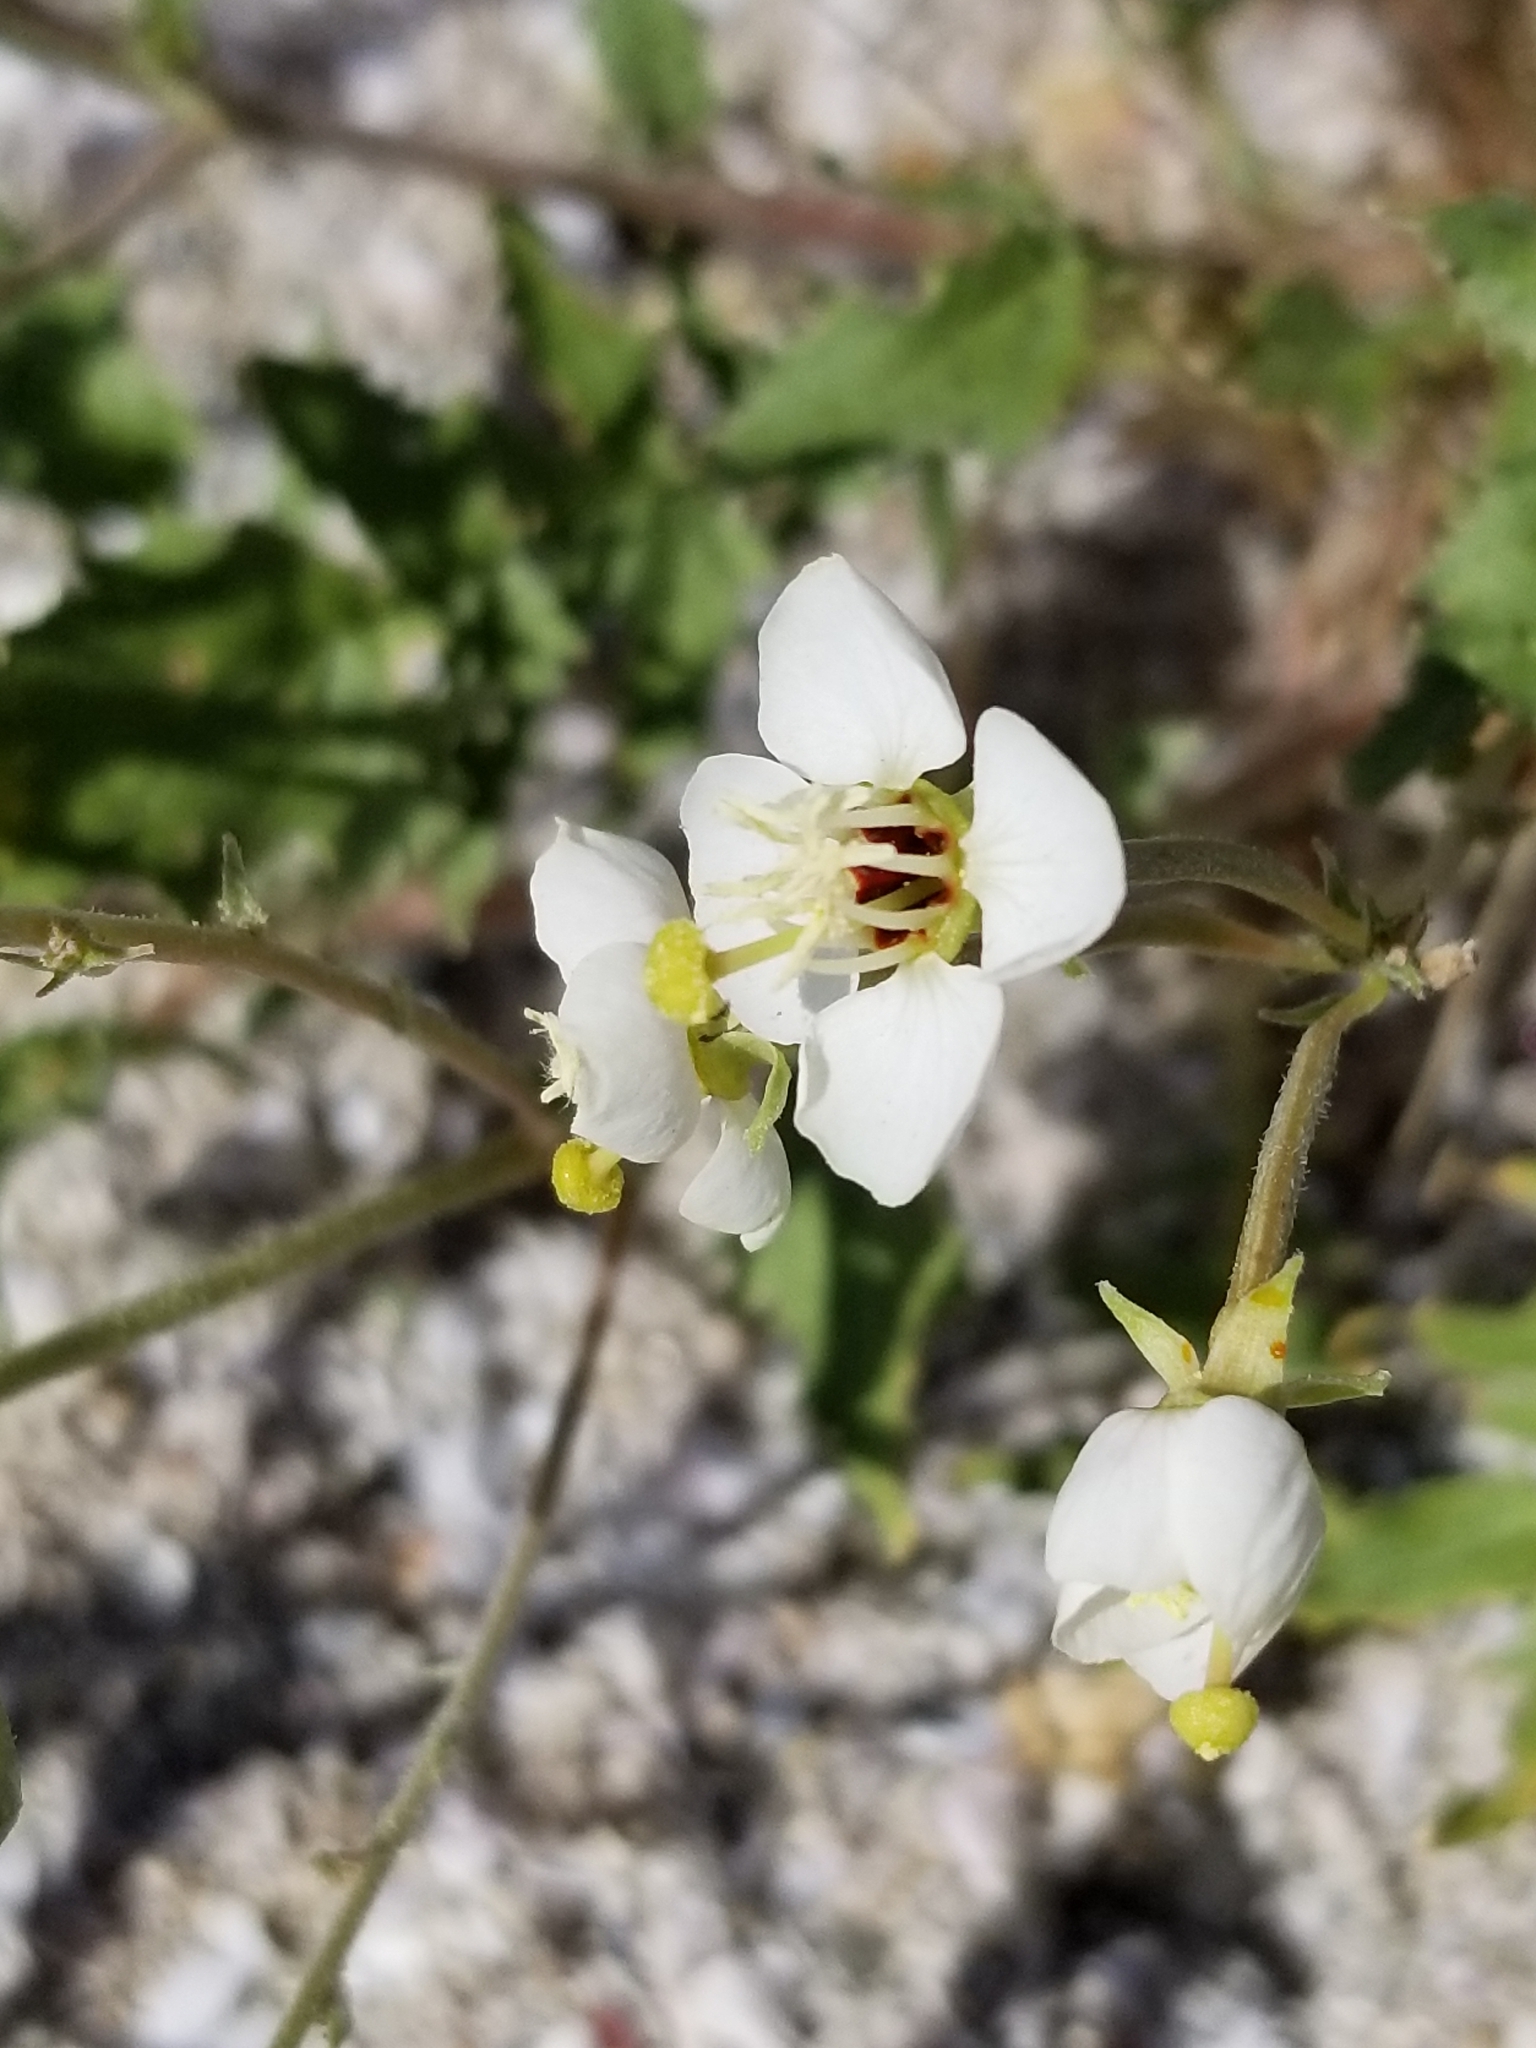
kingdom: Plantae
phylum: Tracheophyta
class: Magnoliopsida
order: Myrtales
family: Onagraceae
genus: Chylismia
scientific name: Chylismia claviformis
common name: Browneyes
